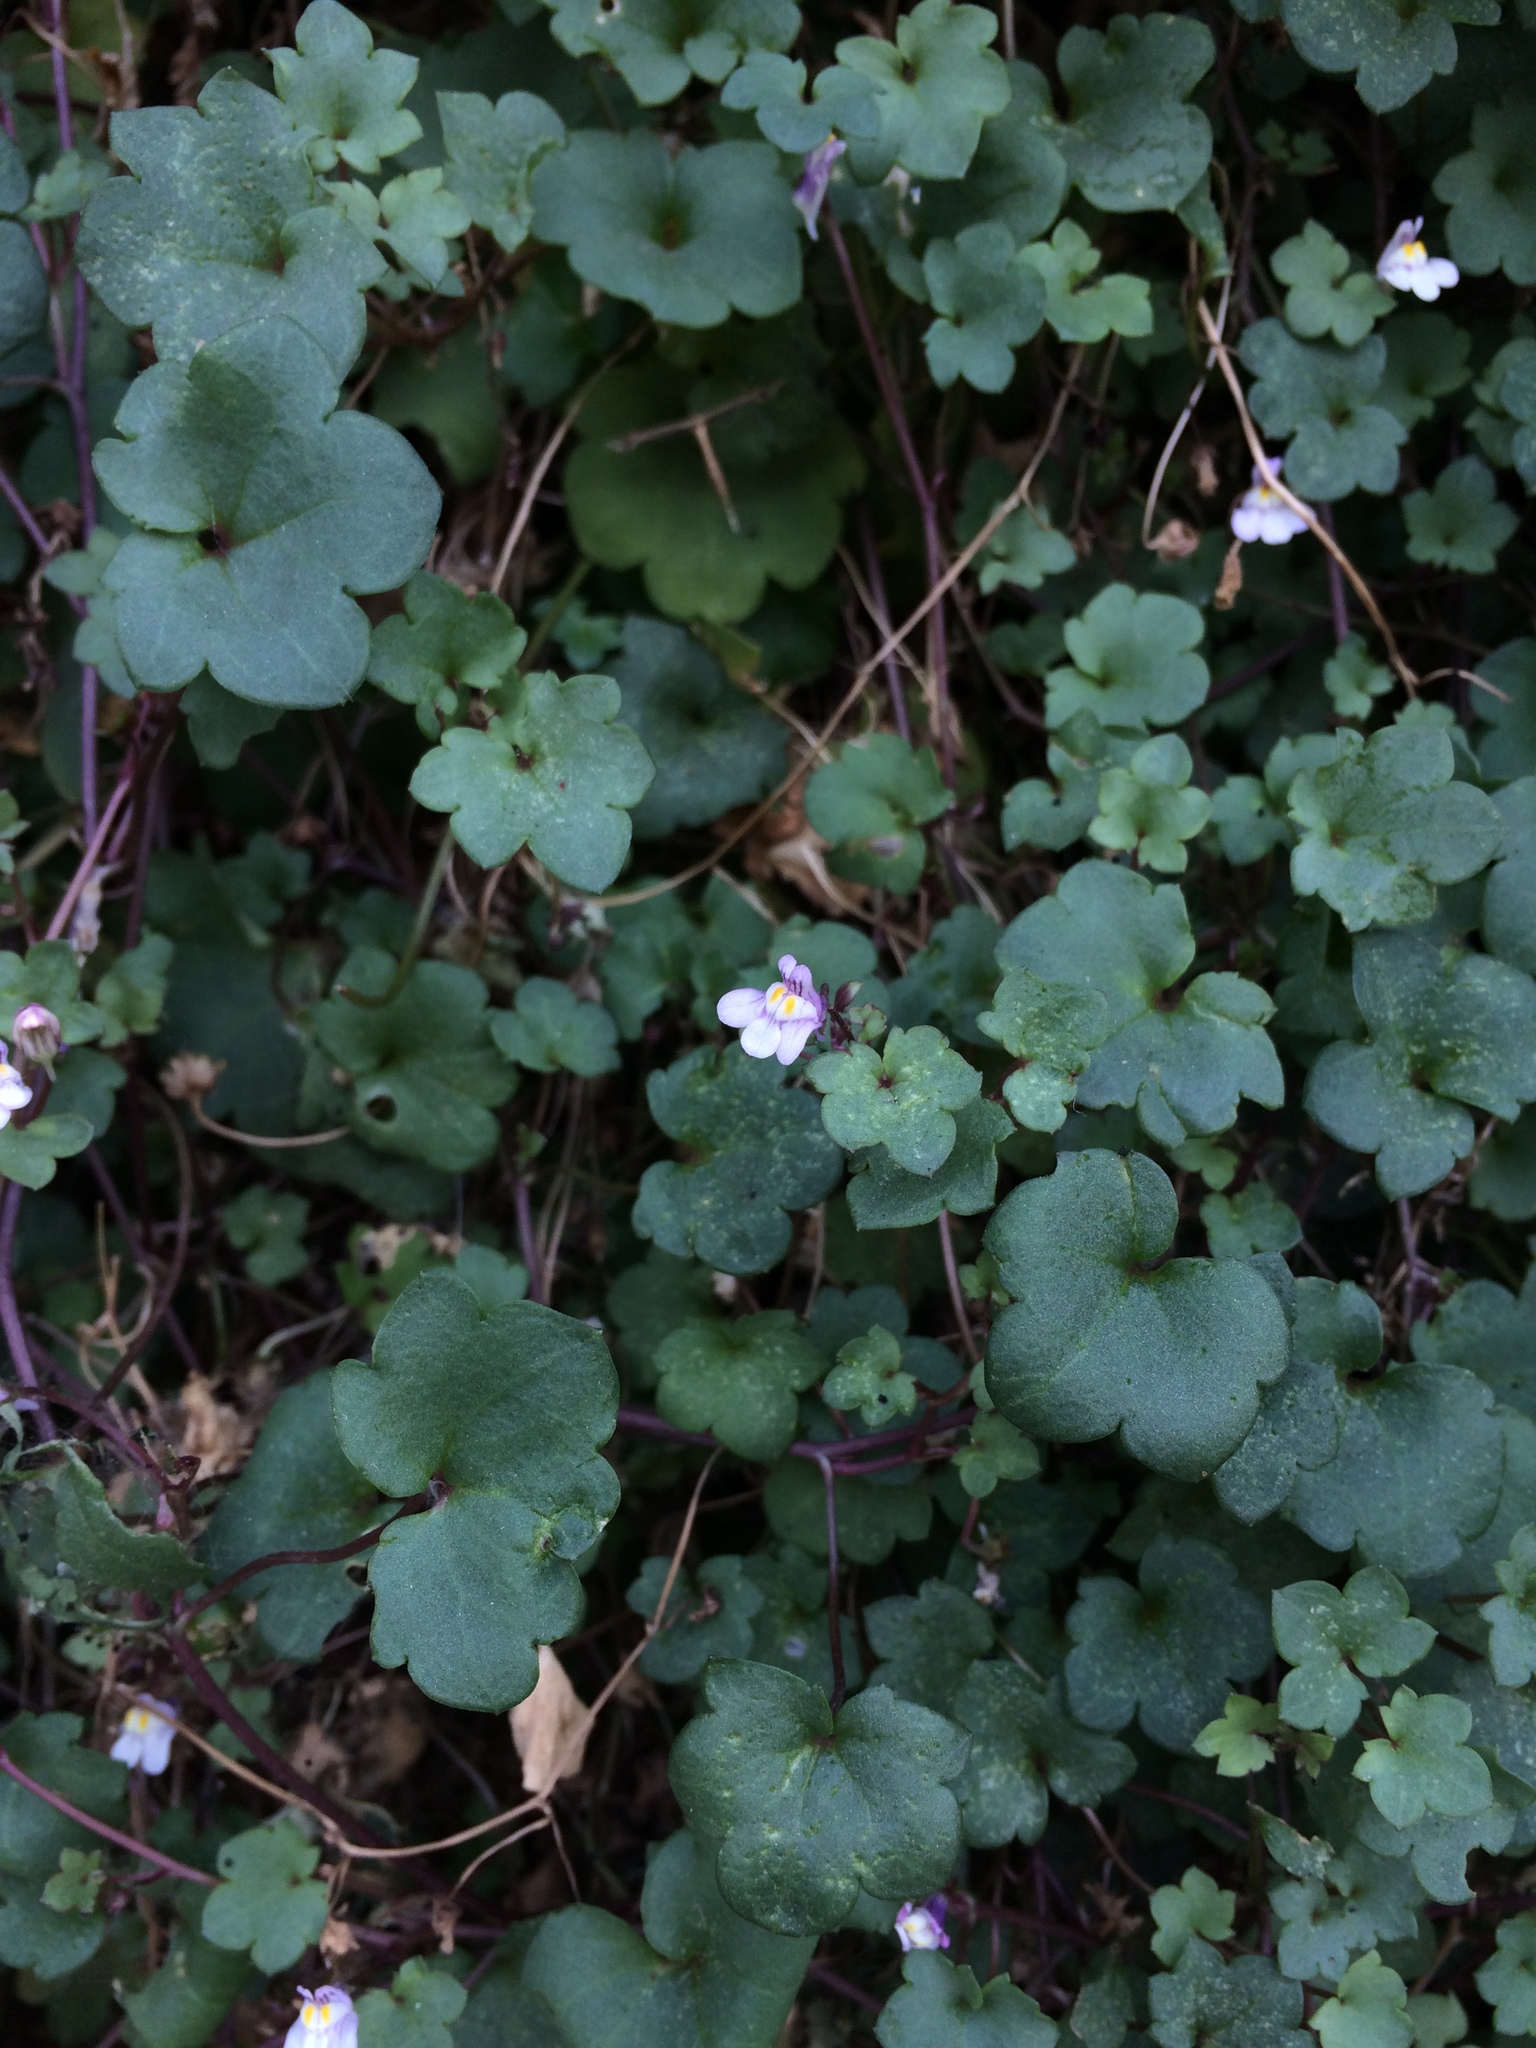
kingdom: Plantae
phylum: Tracheophyta
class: Magnoliopsida
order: Lamiales
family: Plantaginaceae
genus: Cymbalaria
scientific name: Cymbalaria muralis
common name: Ivy-leaved toadflax
